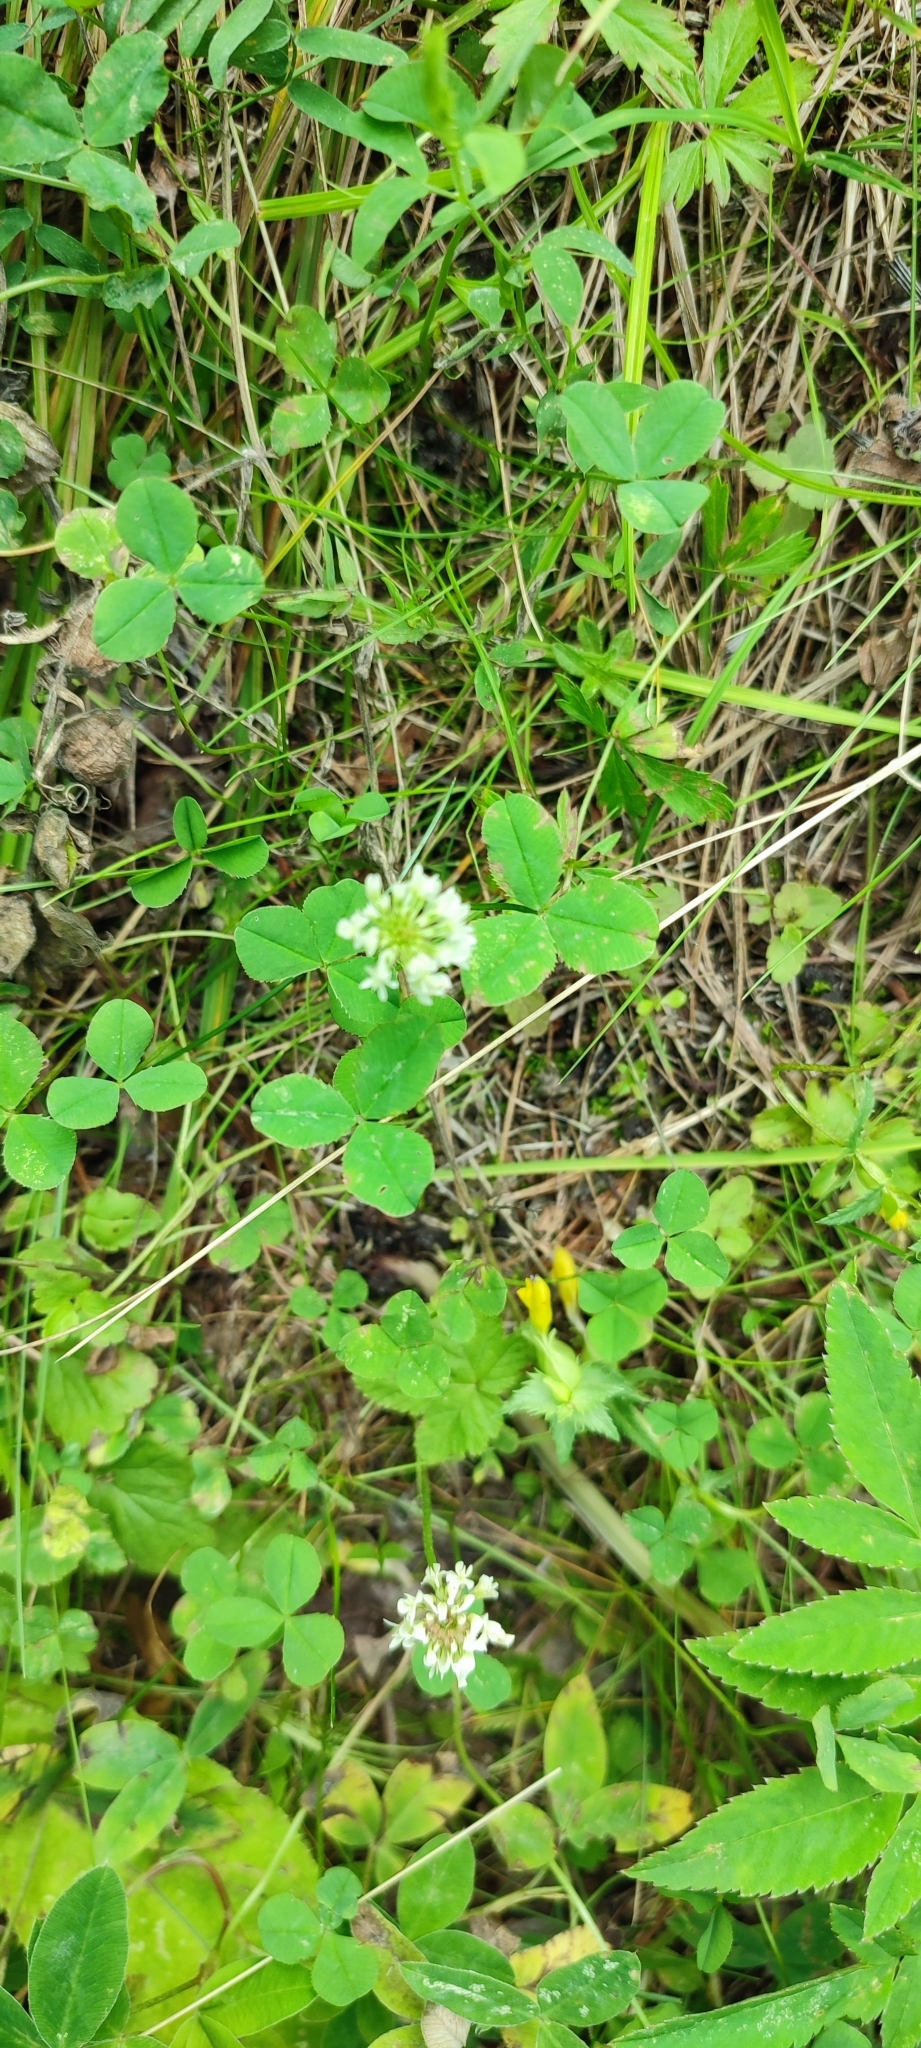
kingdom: Plantae
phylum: Tracheophyta
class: Magnoliopsida
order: Fabales
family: Fabaceae
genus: Trifolium
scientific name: Trifolium repens
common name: White clover
